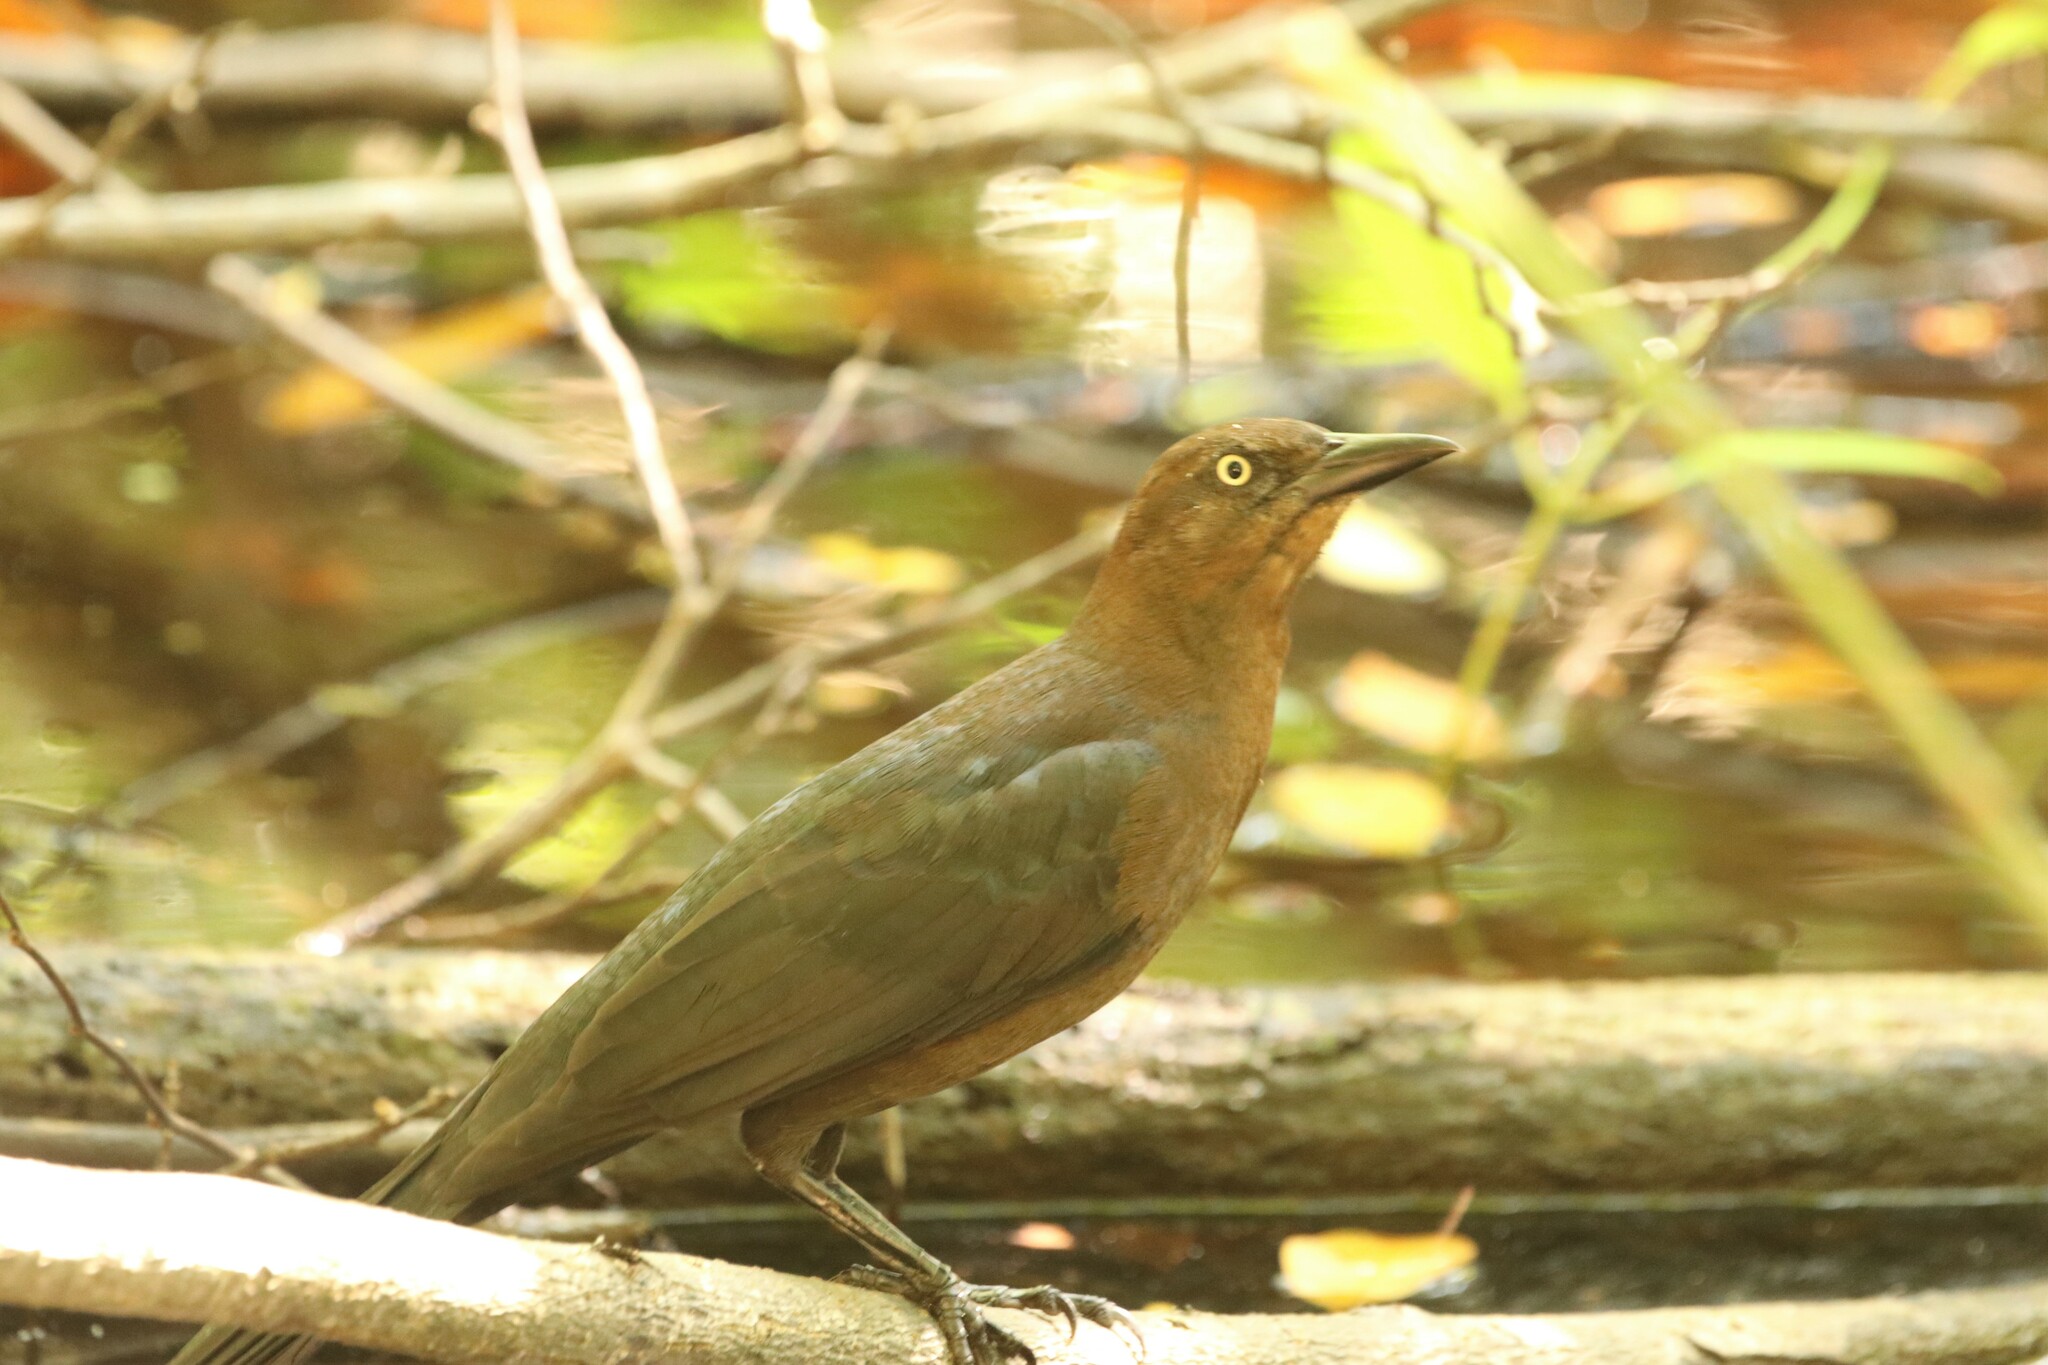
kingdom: Animalia
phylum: Chordata
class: Aves
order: Passeriformes
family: Icteridae
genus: Quiscalus
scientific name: Quiscalus mexicanus
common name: Great-tailed grackle
